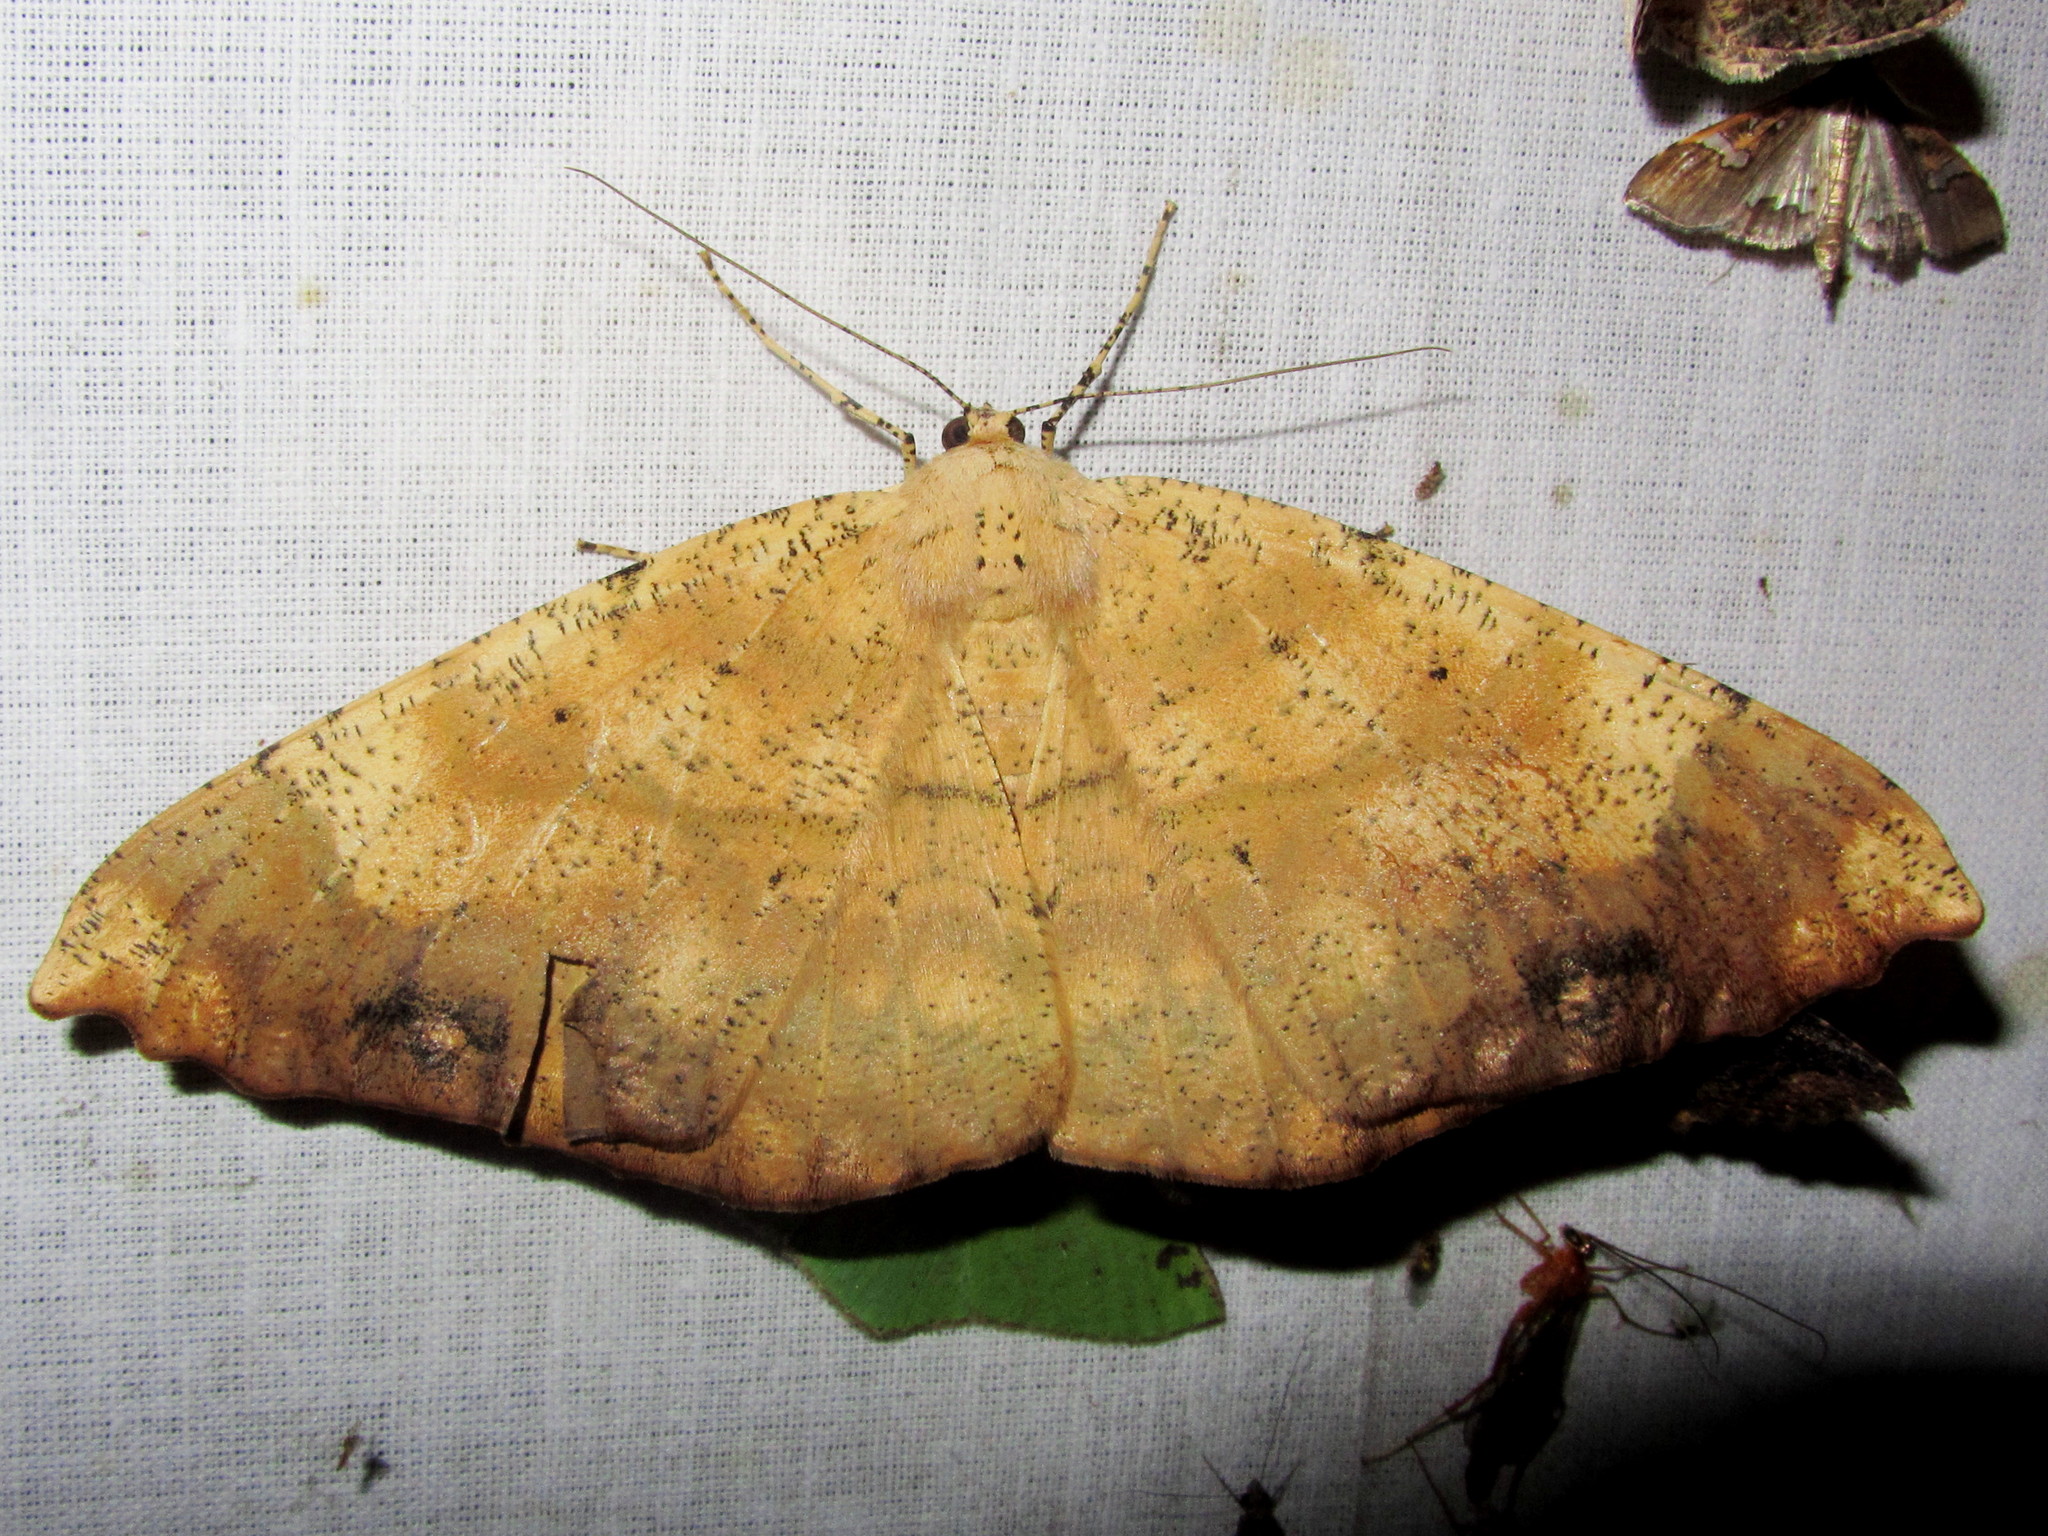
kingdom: Animalia
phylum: Arthropoda
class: Insecta
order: Lepidoptera
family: Geometridae
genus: Chorodna
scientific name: Chorodna testaceata
